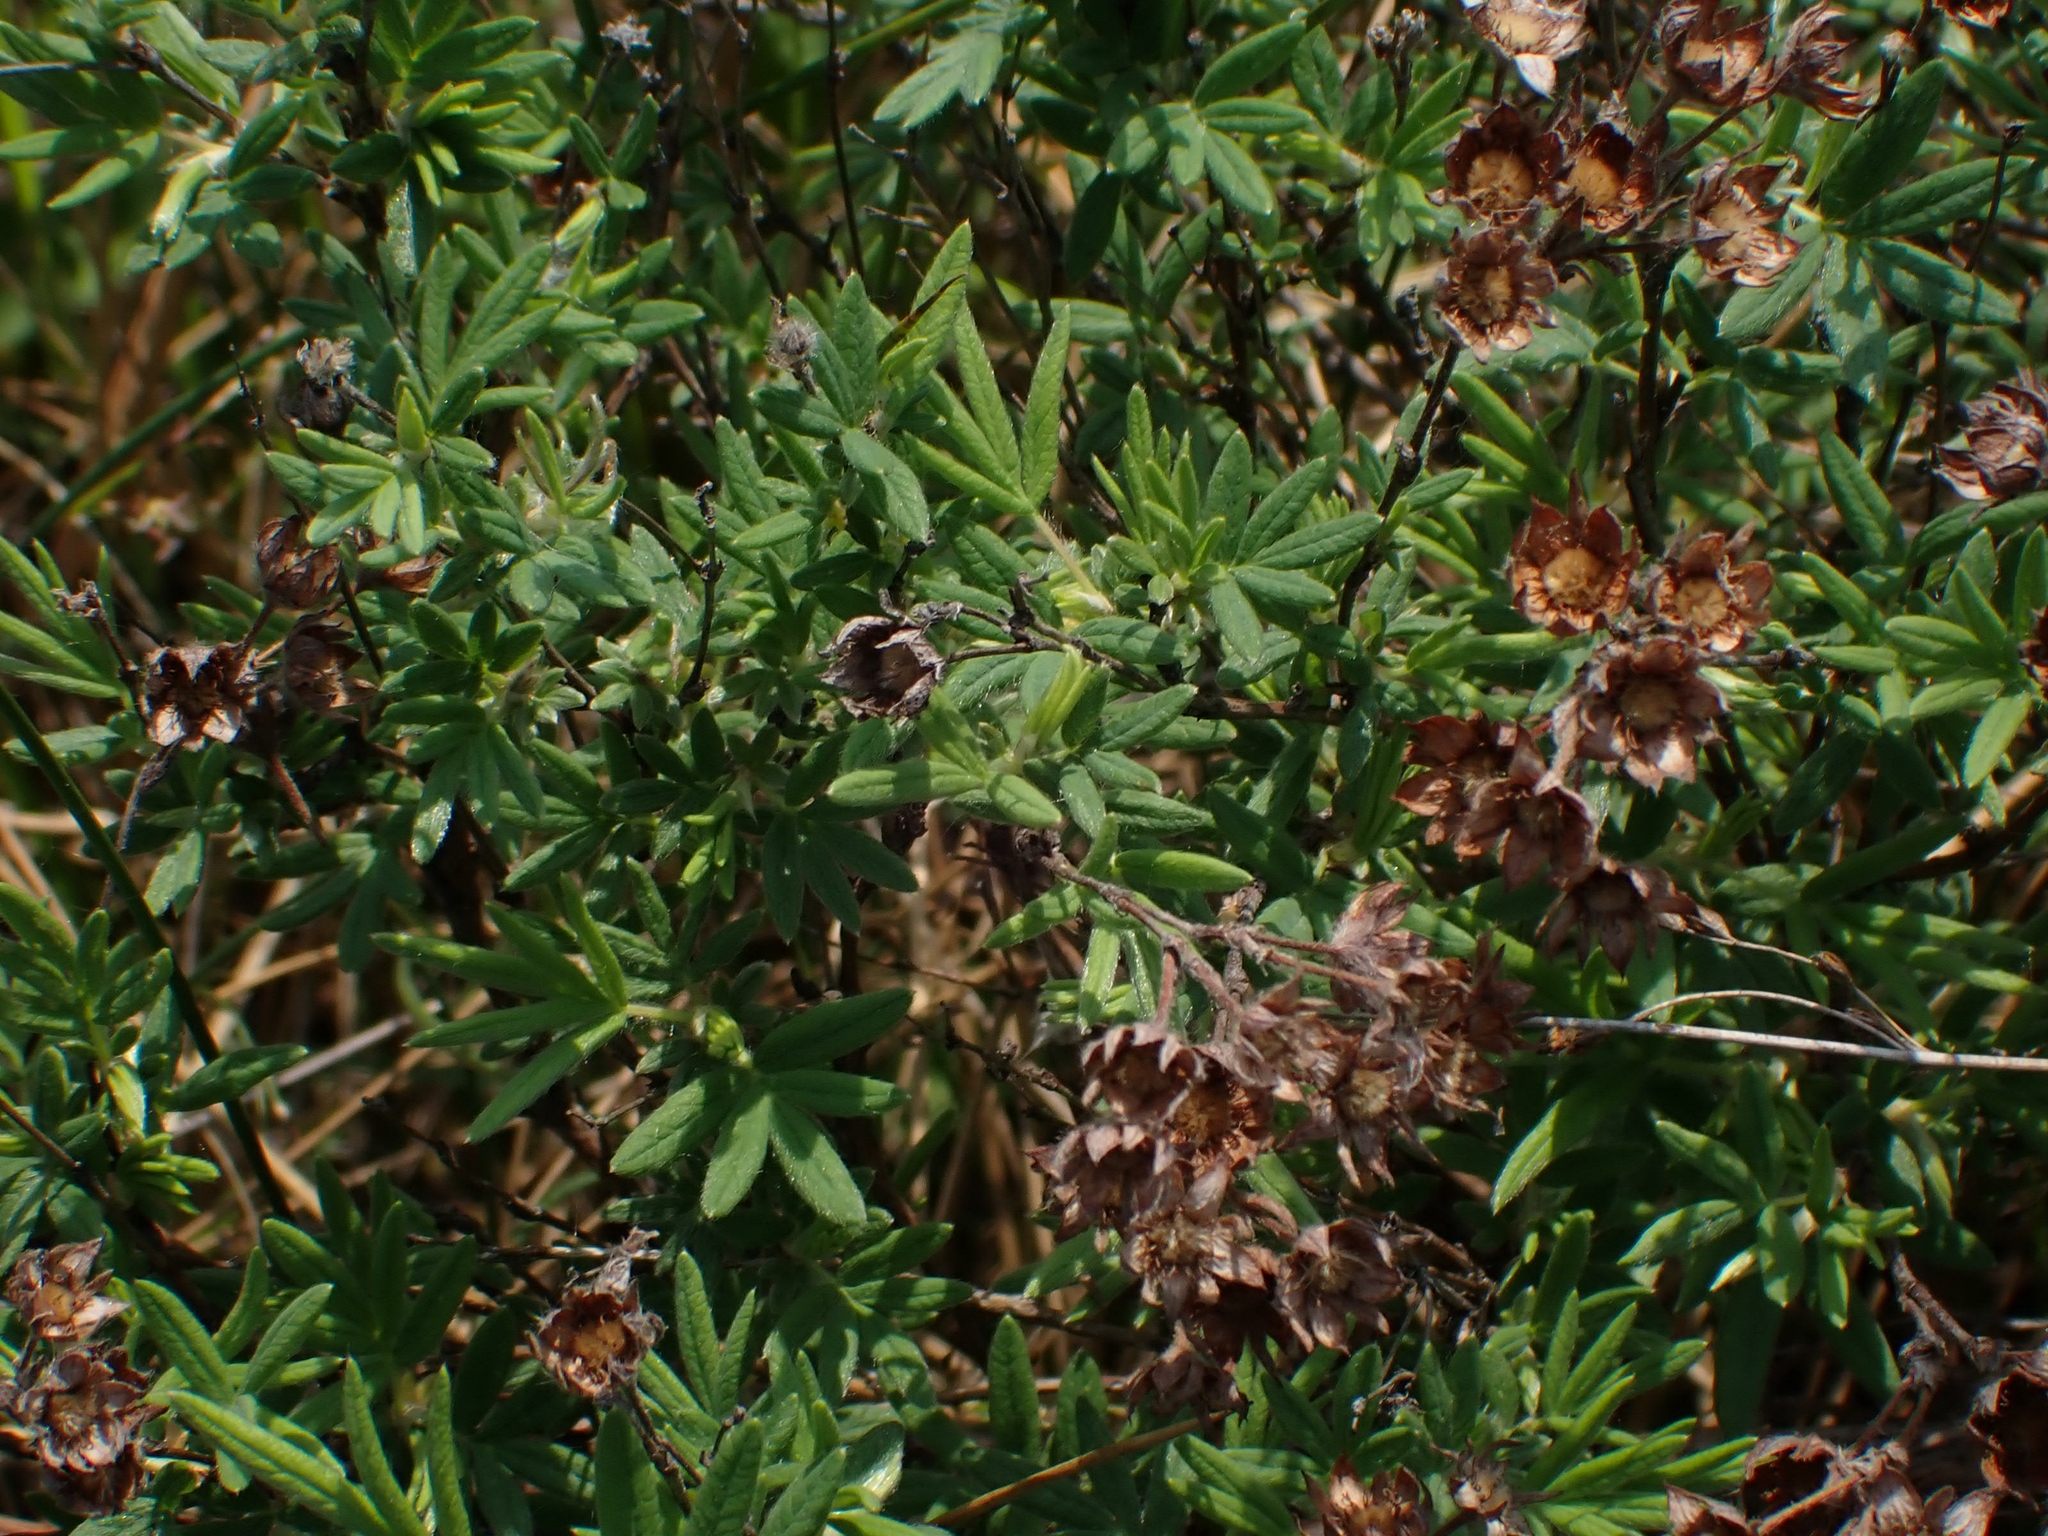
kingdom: Plantae
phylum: Tracheophyta
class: Magnoliopsida
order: Rosales
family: Rosaceae
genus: Dasiphora
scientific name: Dasiphora fruticosa
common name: Shrubby cinquefoil
